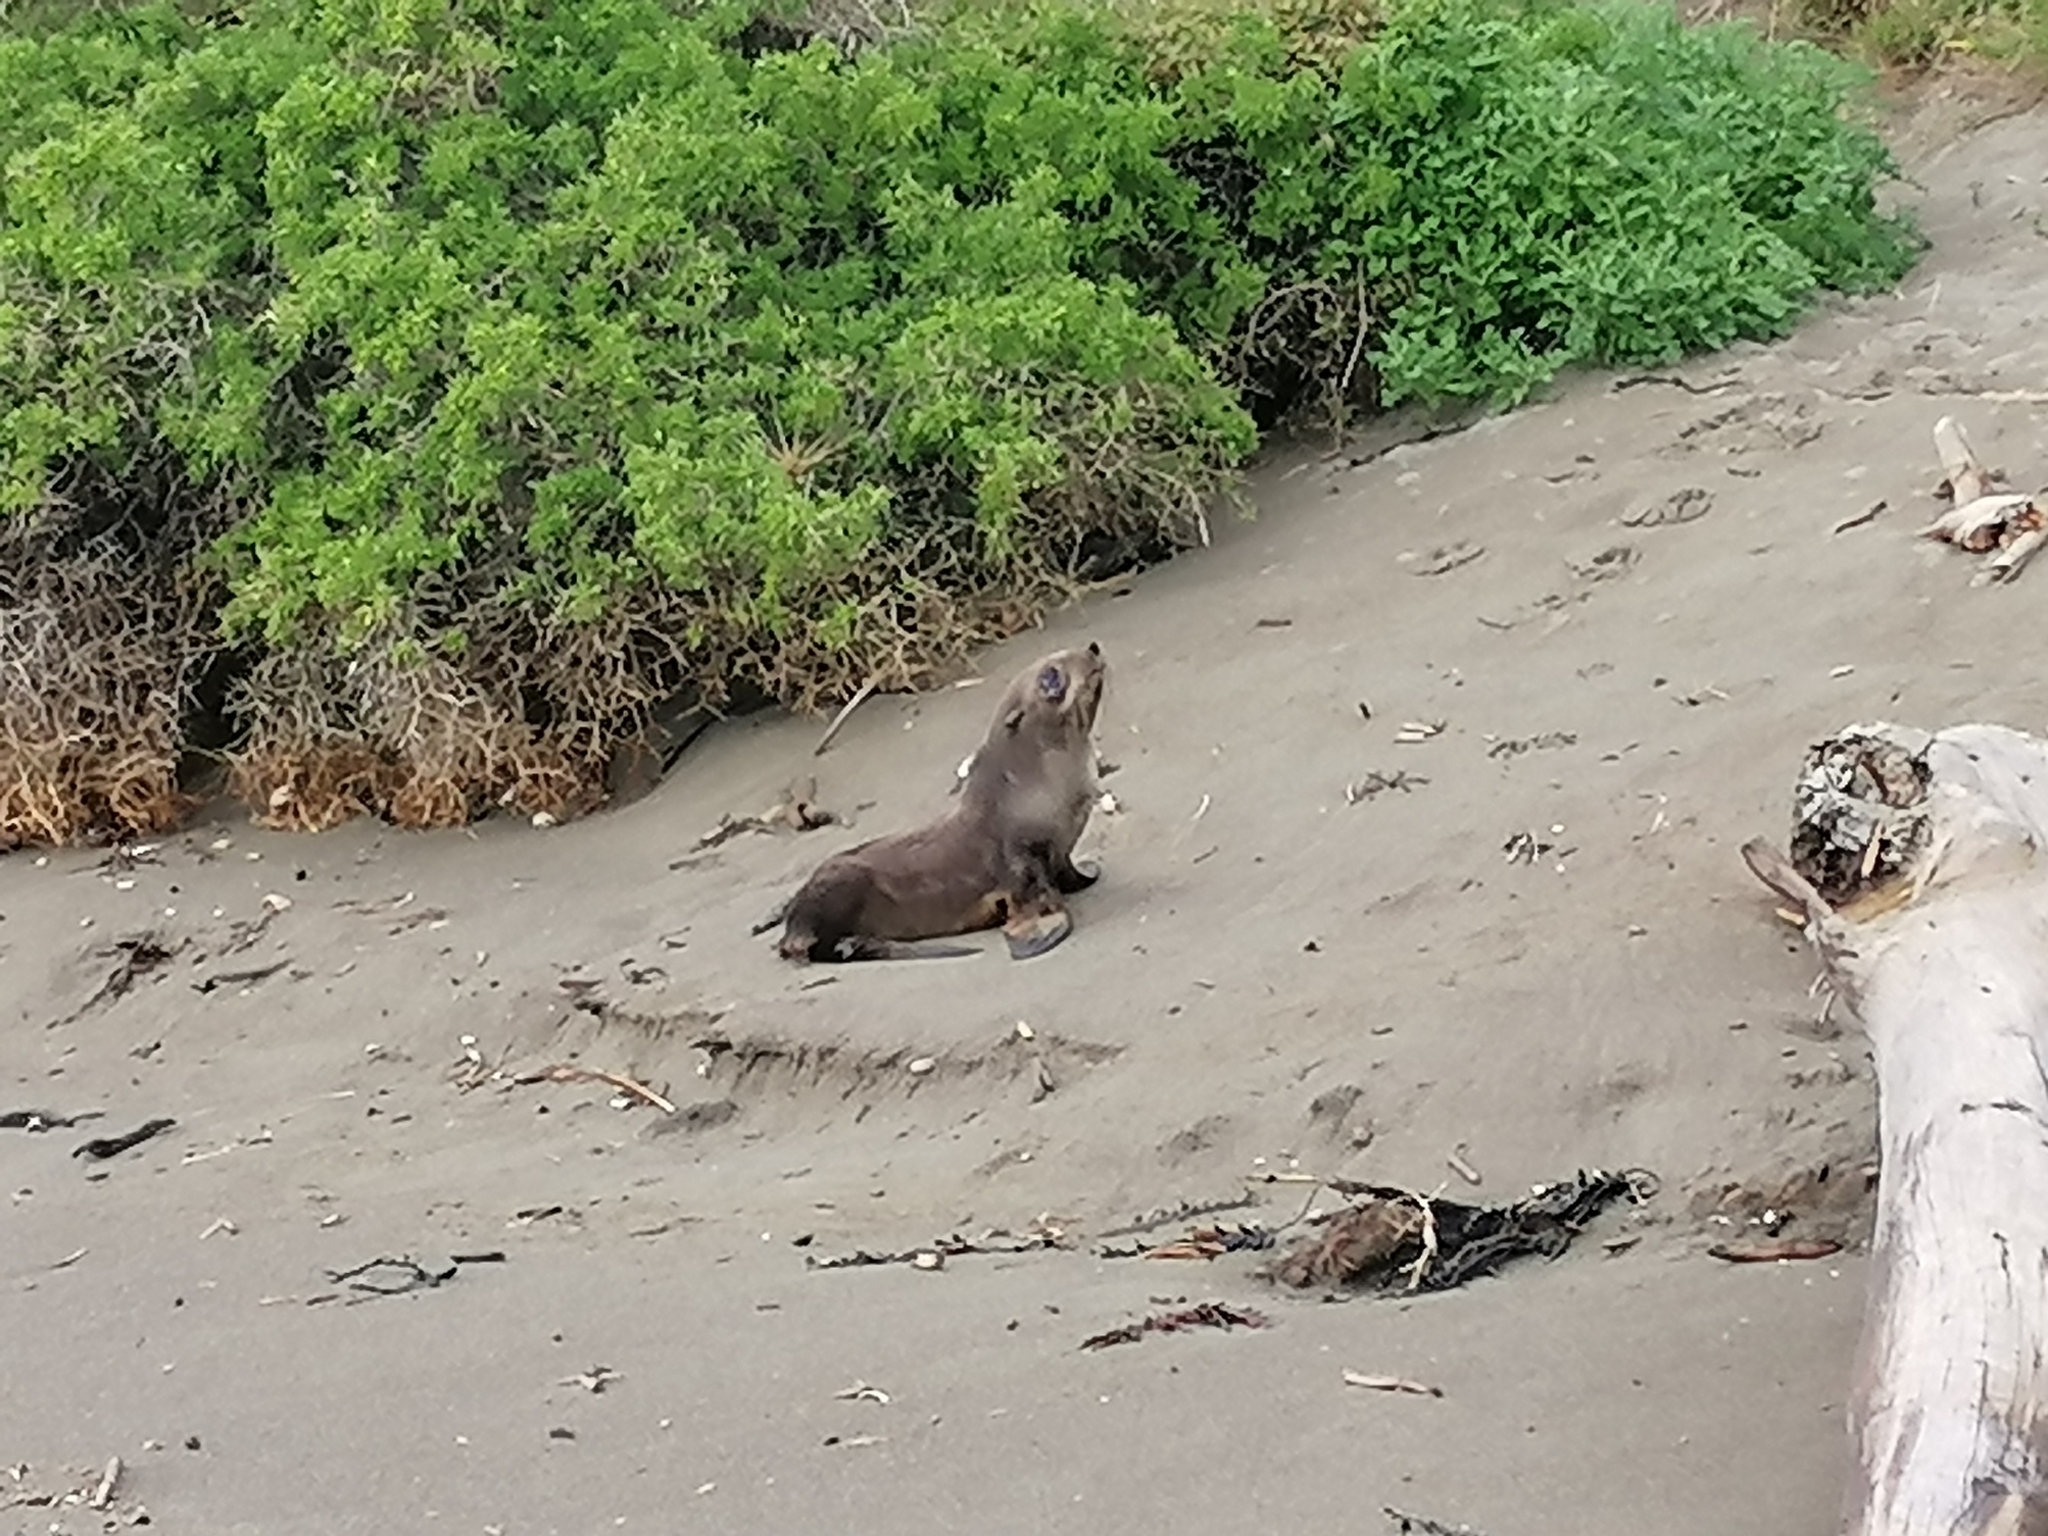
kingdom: Animalia
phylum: Chordata
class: Mammalia
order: Carnivora
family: Otariidae
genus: Arctocephalus
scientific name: Arctocephalus forsteri
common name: New zealand fur seal
